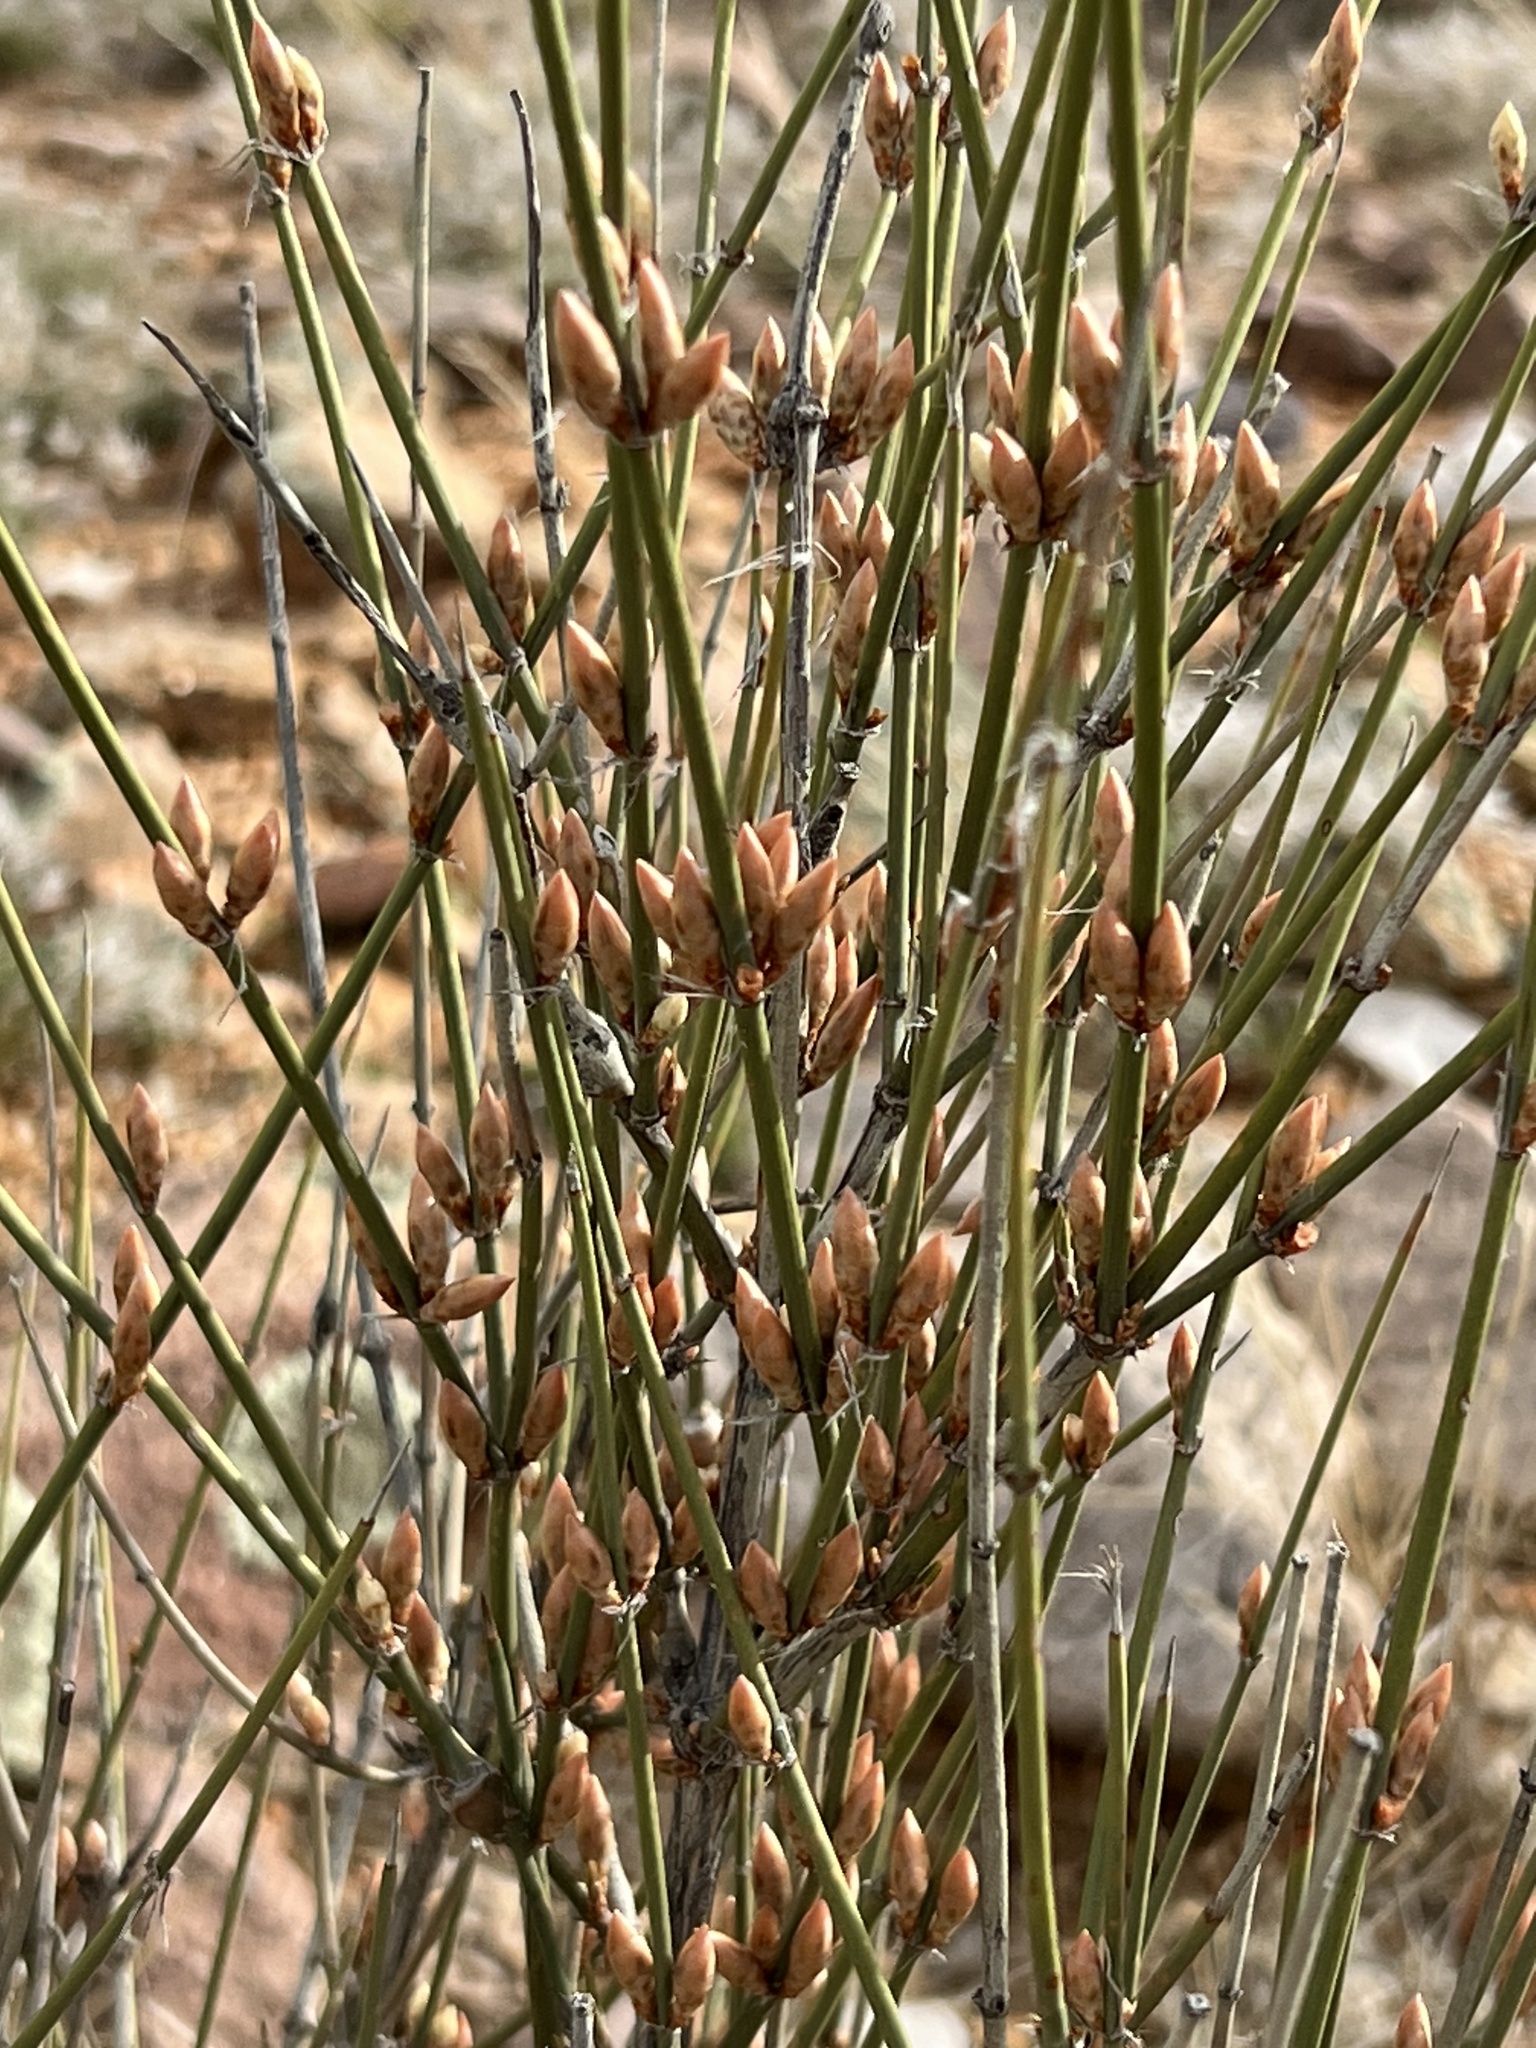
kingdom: Plantae
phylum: Tracheophyta
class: Gnetopsida
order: Ephedrales
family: Ephedraceae
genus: Ephedra
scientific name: Ephedra trifurca
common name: Mexican-tea
